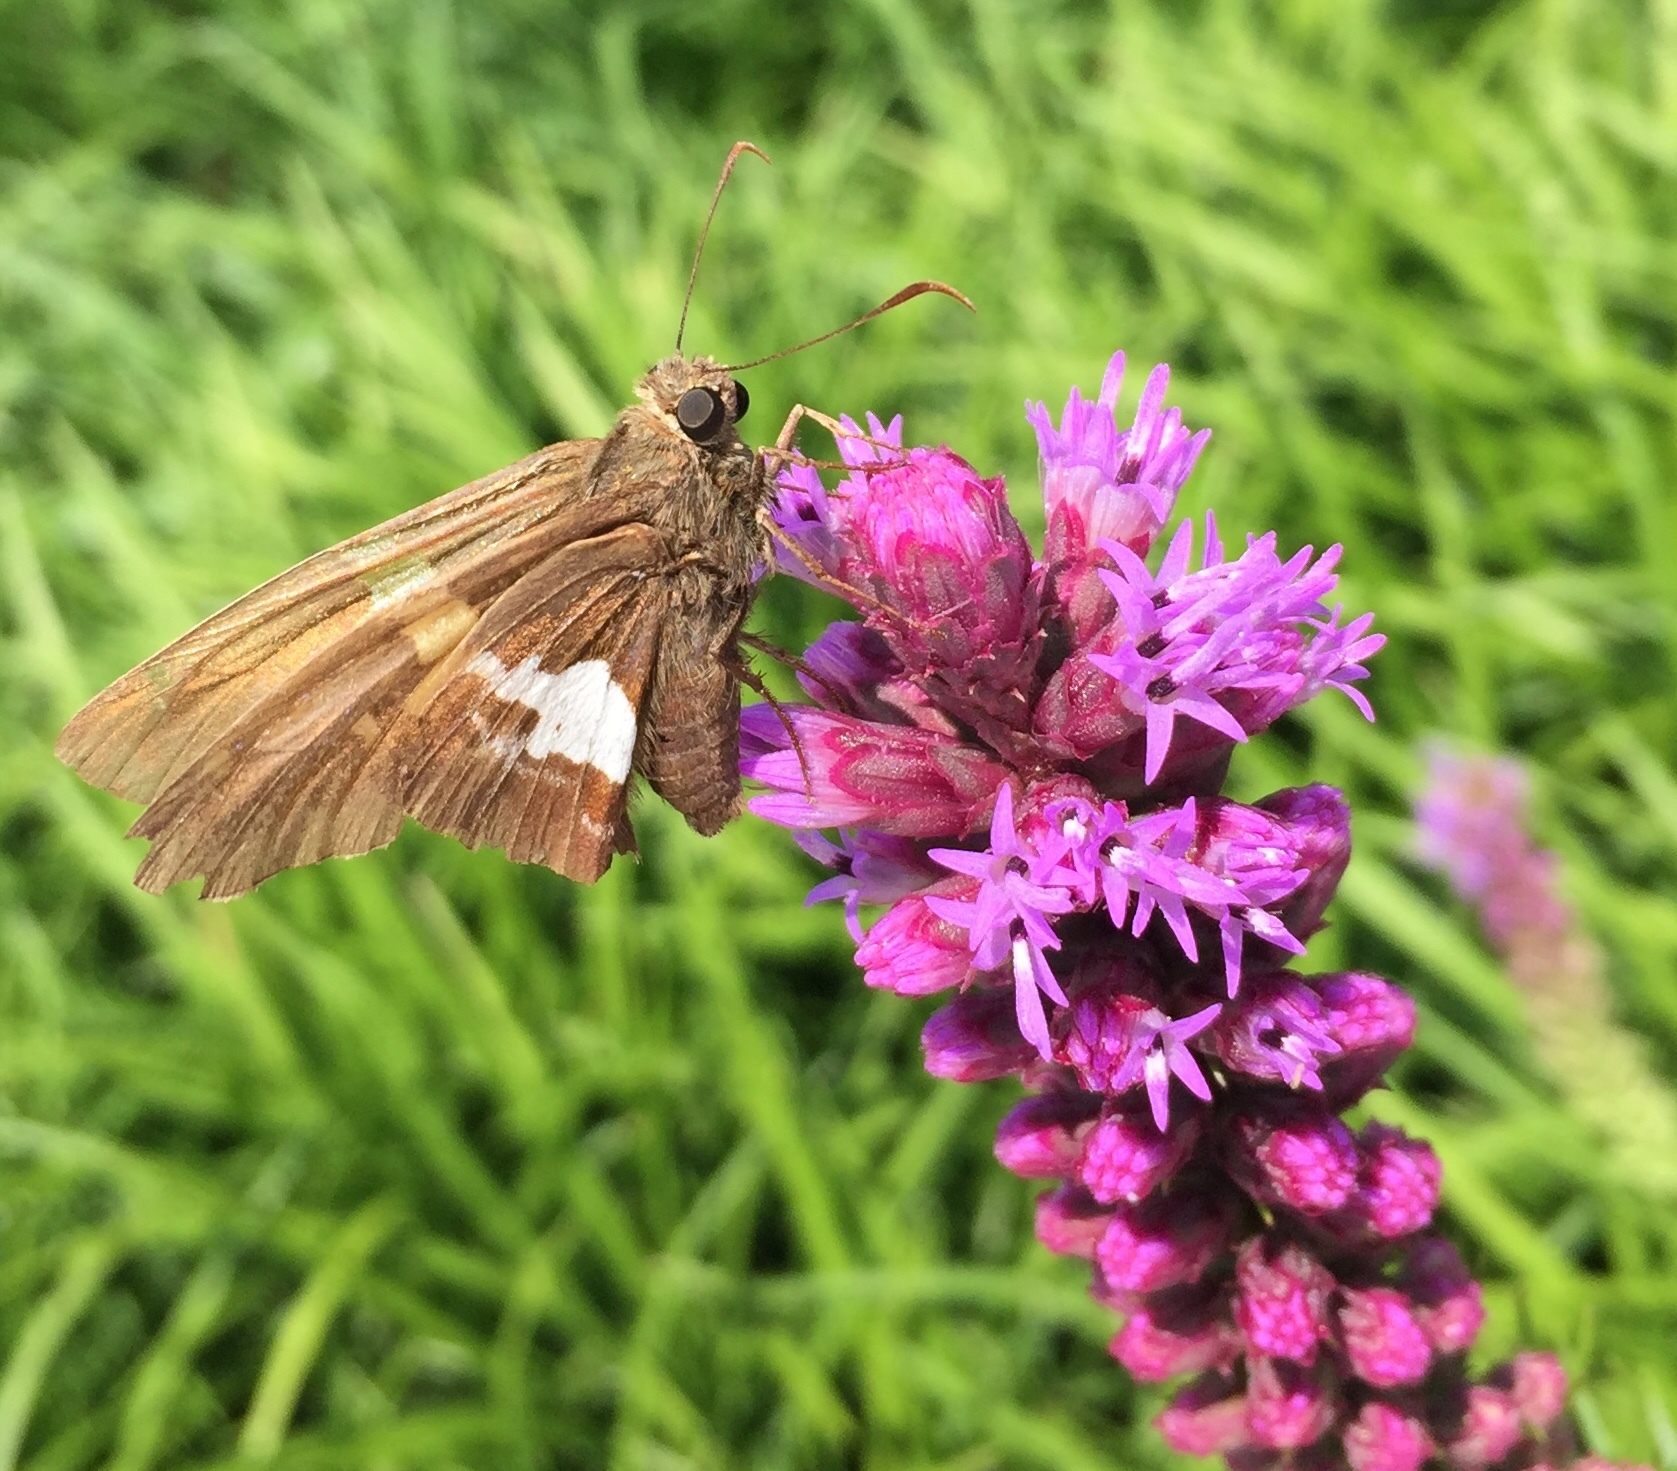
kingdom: Animalia
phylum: Arthropoda
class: Insecta
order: Lepidoptera
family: Hesperiidae
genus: Epargyreus
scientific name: Epargyreus clarus
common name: Silver-spotted skipper
